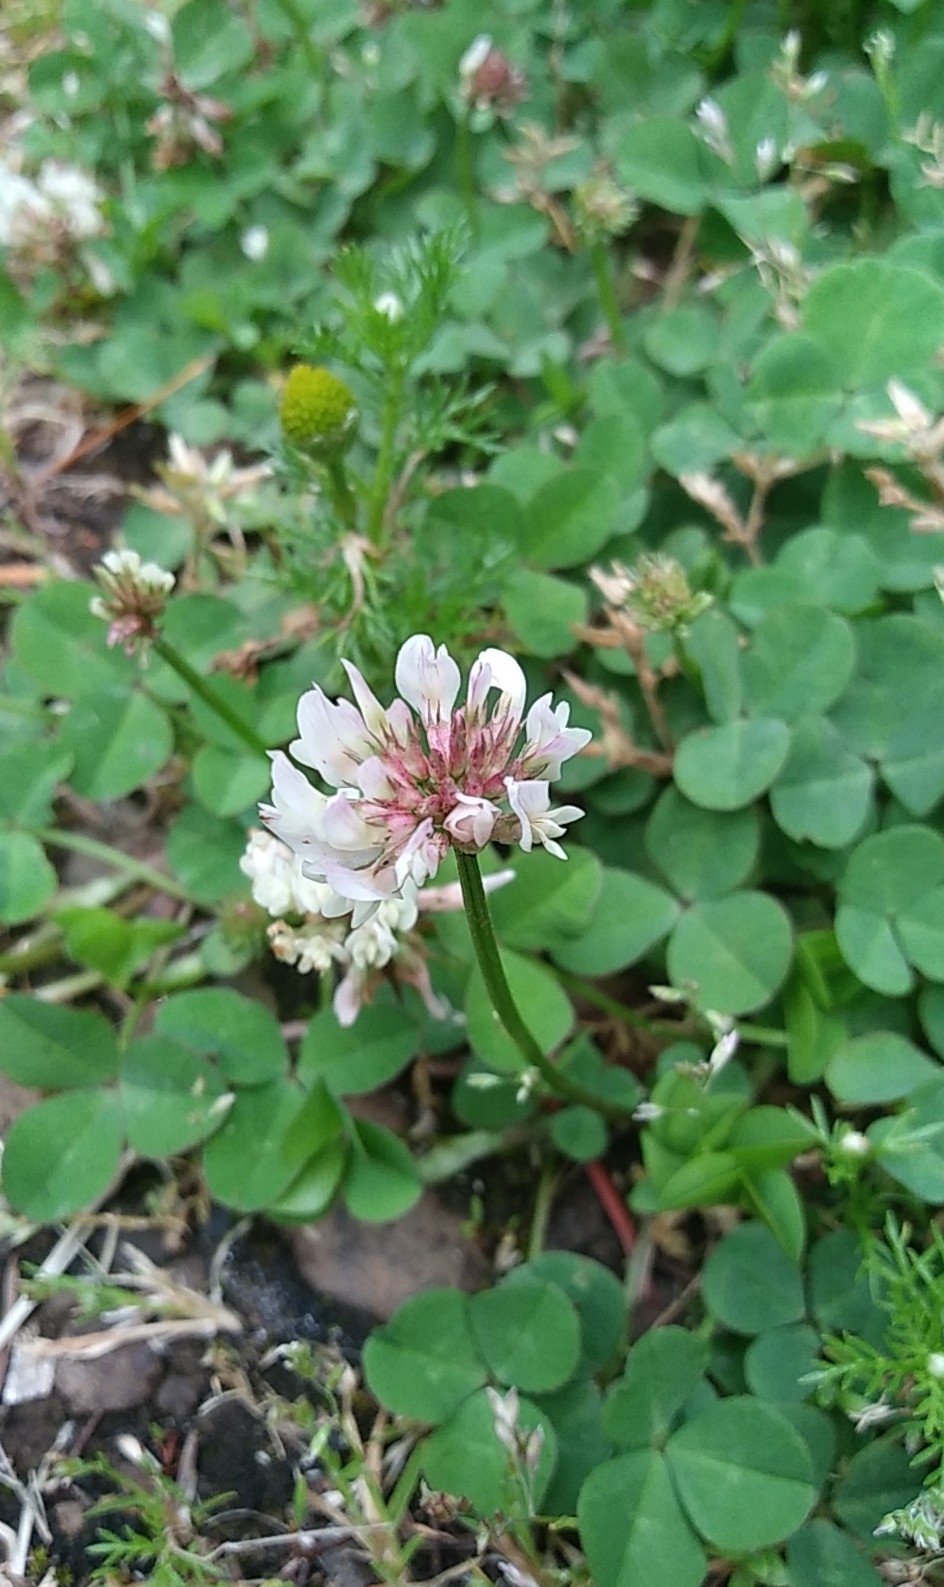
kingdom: Plantae
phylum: Tracheophyta
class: Magnoliopsida
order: Fabales
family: Fabaceae
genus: Trifolium
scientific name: Trifolium repens
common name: White clover
